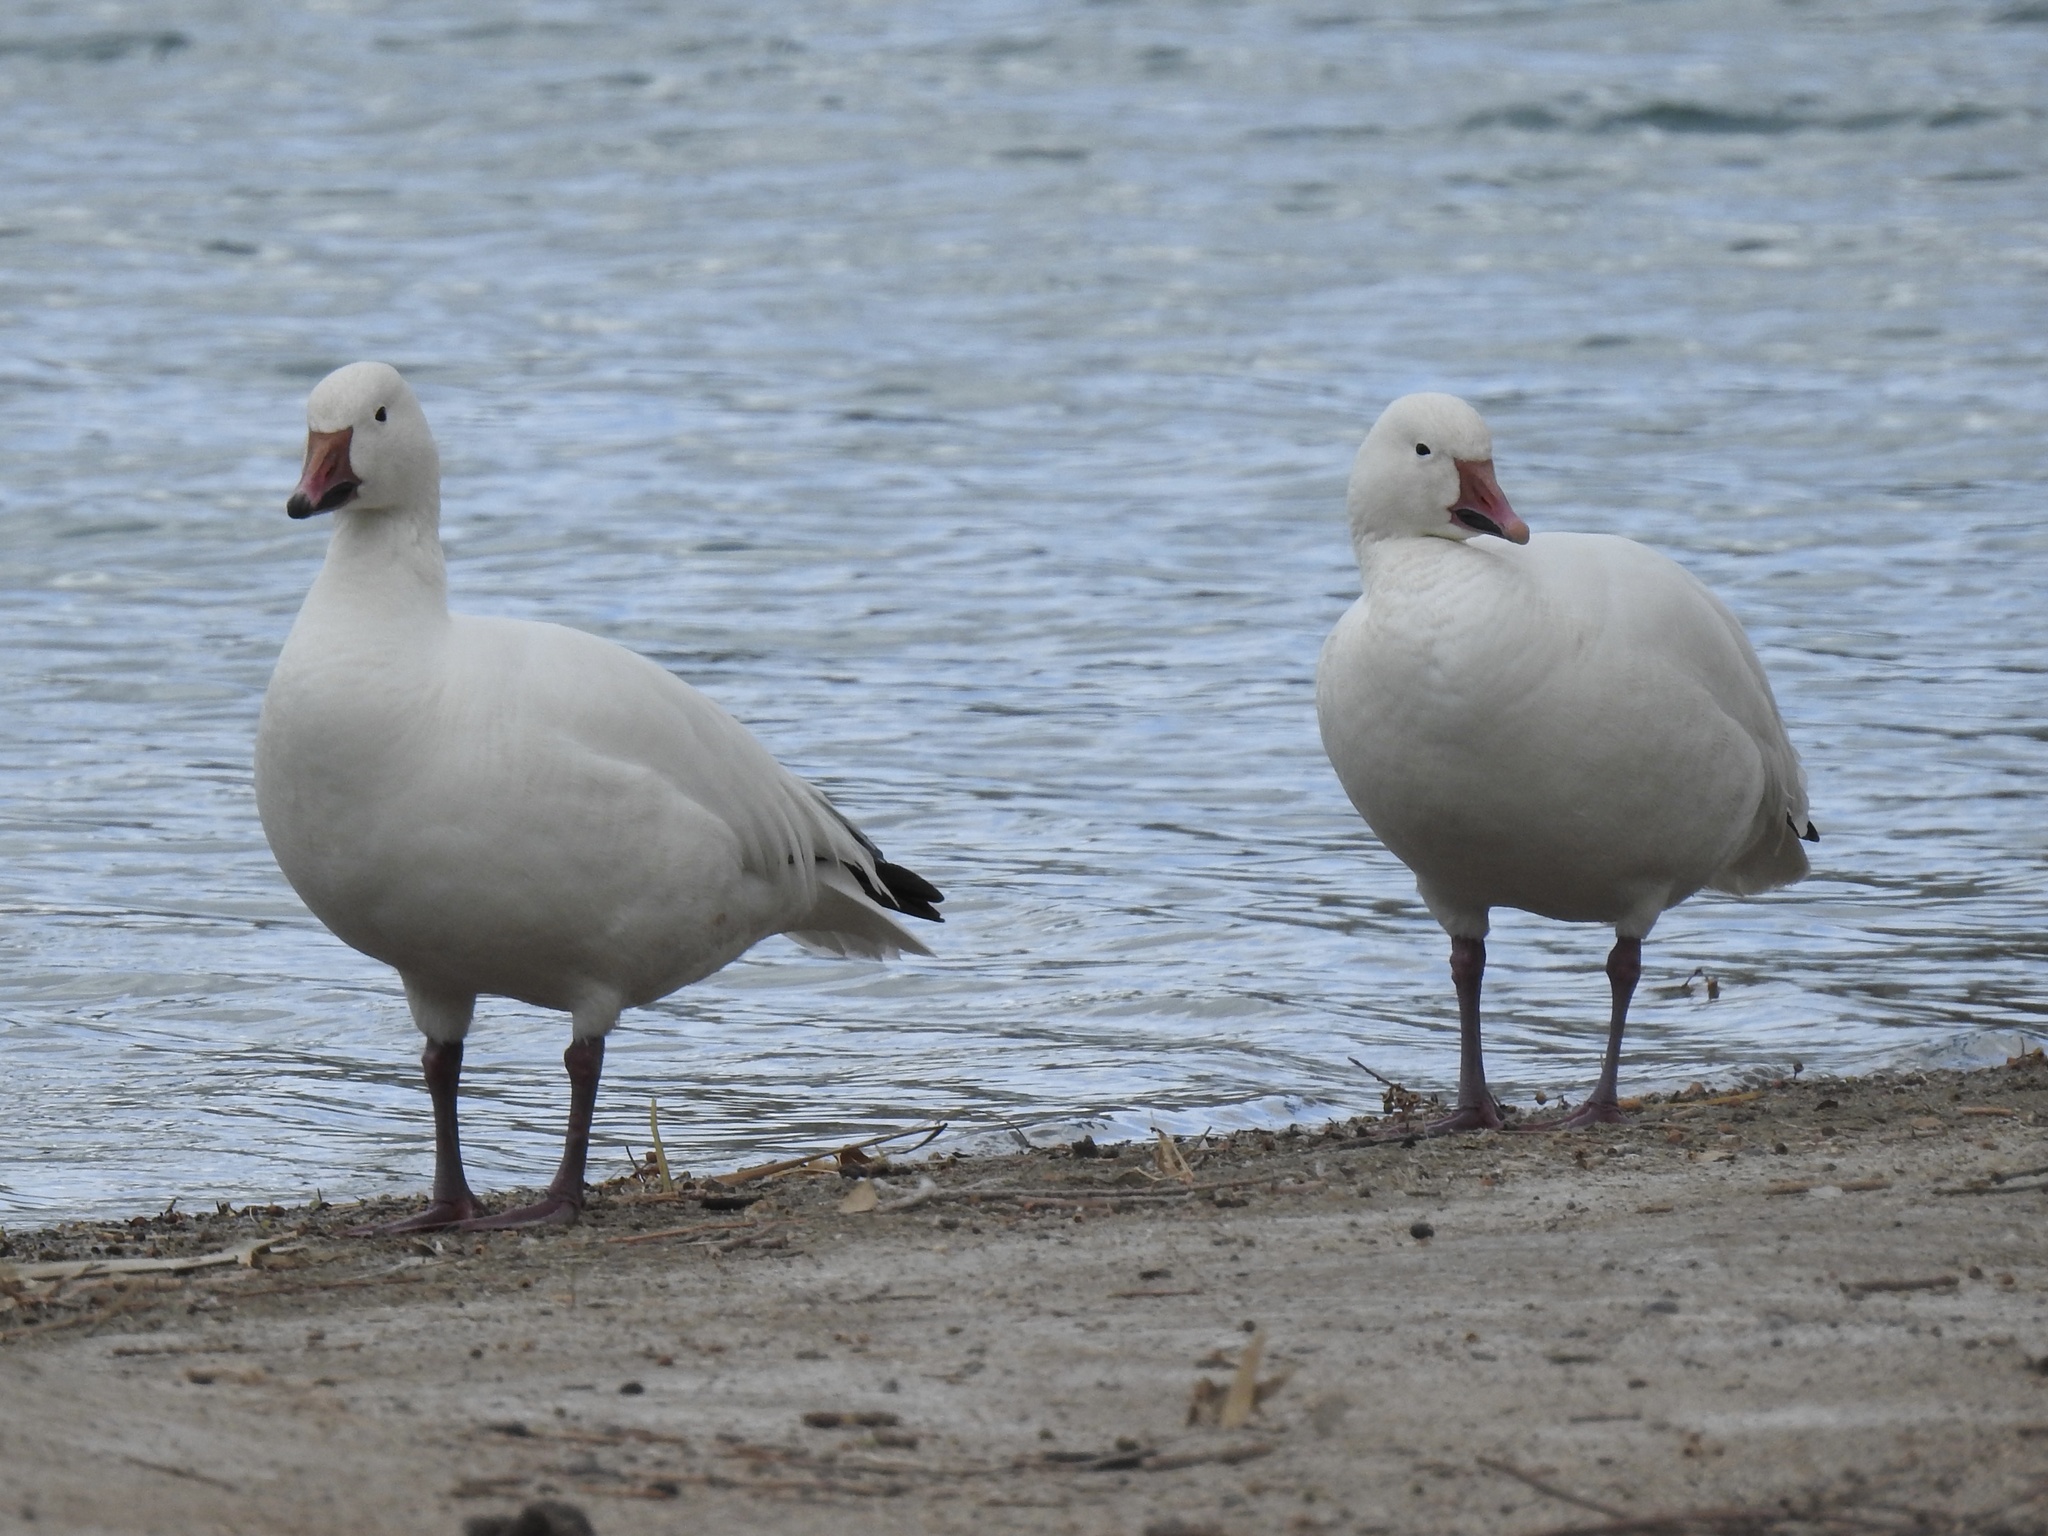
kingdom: Animalia
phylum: Chordata
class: Aves
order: Anseriformes
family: Anatidae
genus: Anser
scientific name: Anser caerulescens
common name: Snow goose
